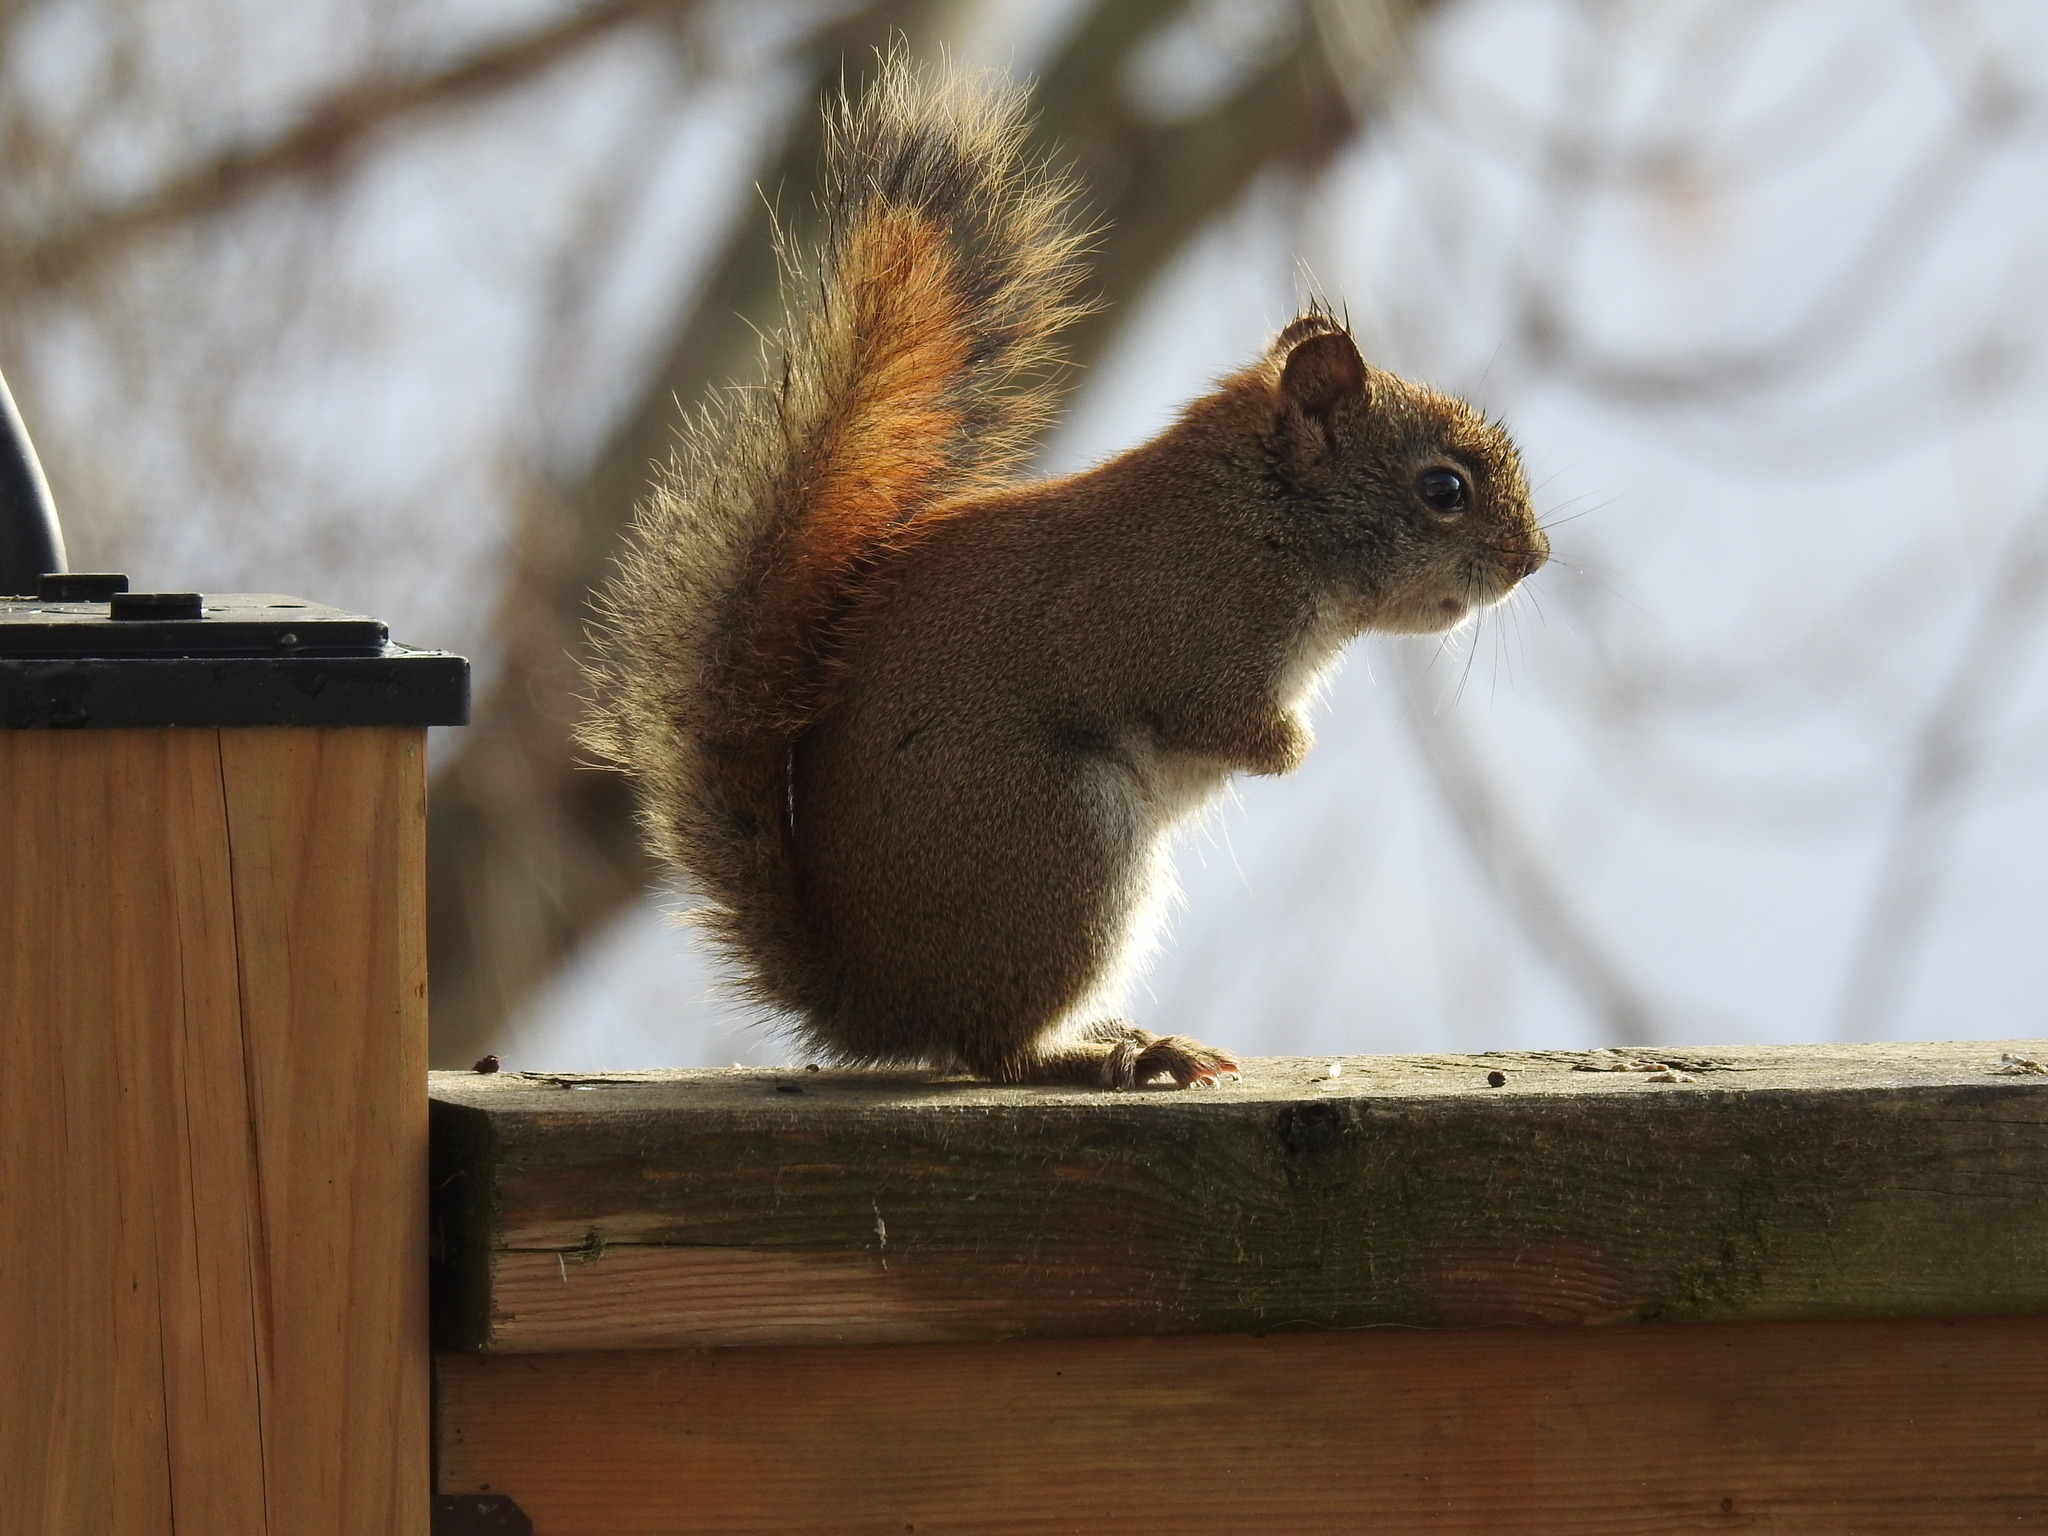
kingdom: Animalia
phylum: Chordata
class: Mammalia
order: Rodentia
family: Sciuridae
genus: Tamiasciurus
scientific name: Tamiasciurus hudsonicus
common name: Red squirrel
